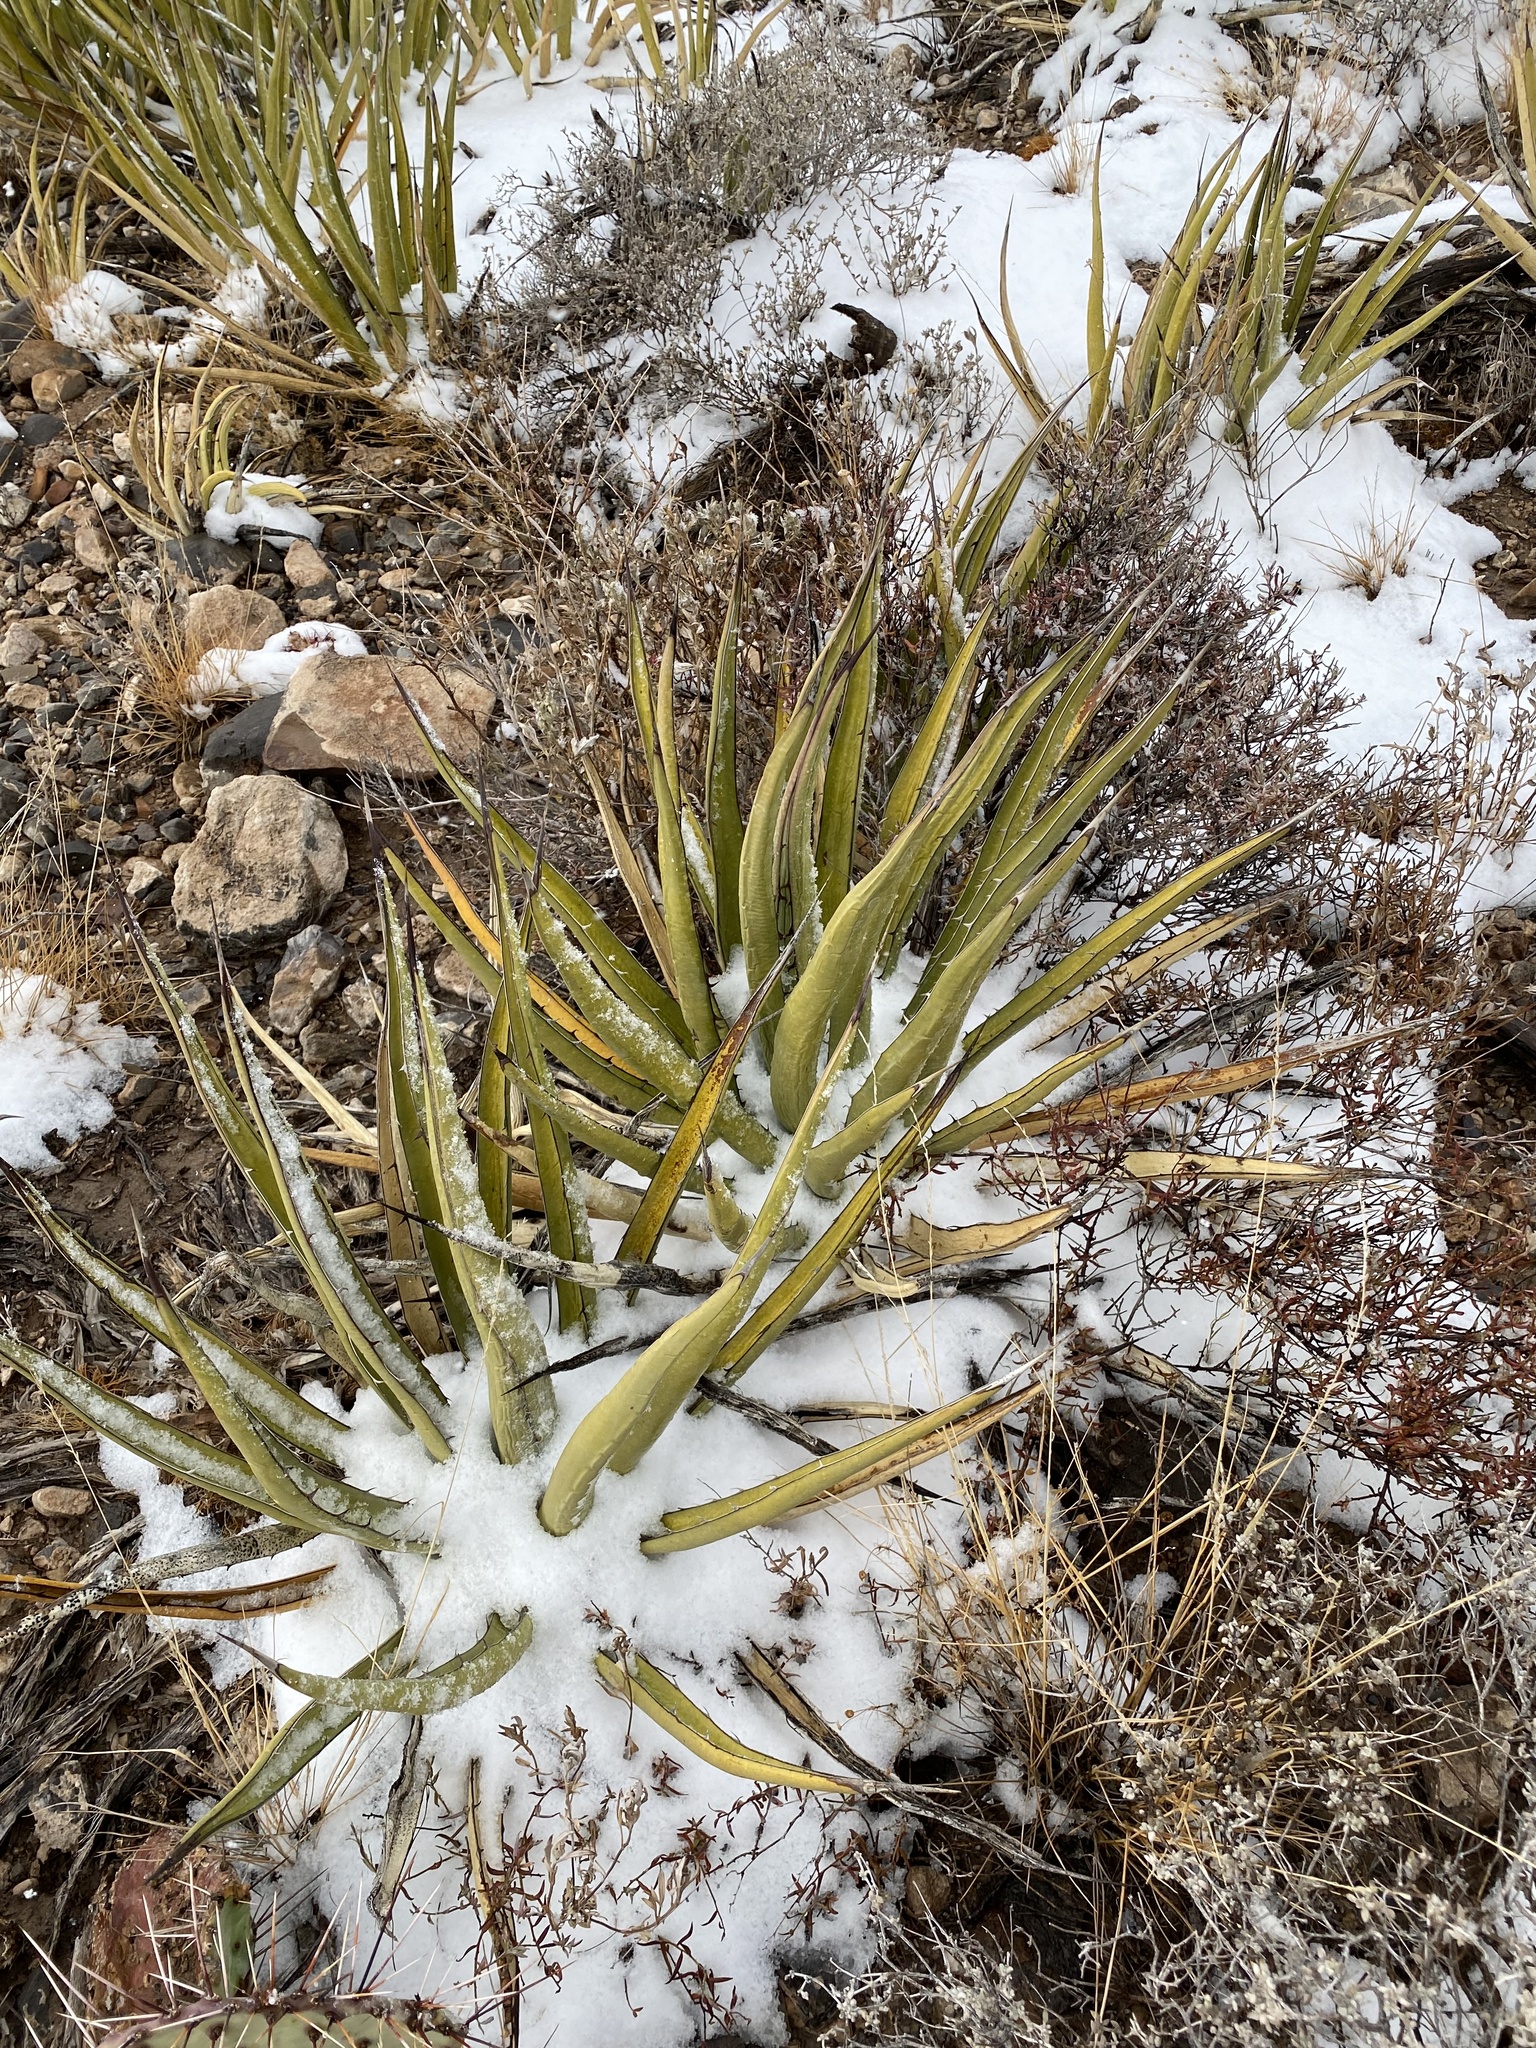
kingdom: Plantae
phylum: Tracheophyta
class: Liliopsida
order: Asparagales
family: Asparagaceae
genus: Agave
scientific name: Agave lechuguilla
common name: Lecheguilla agave
